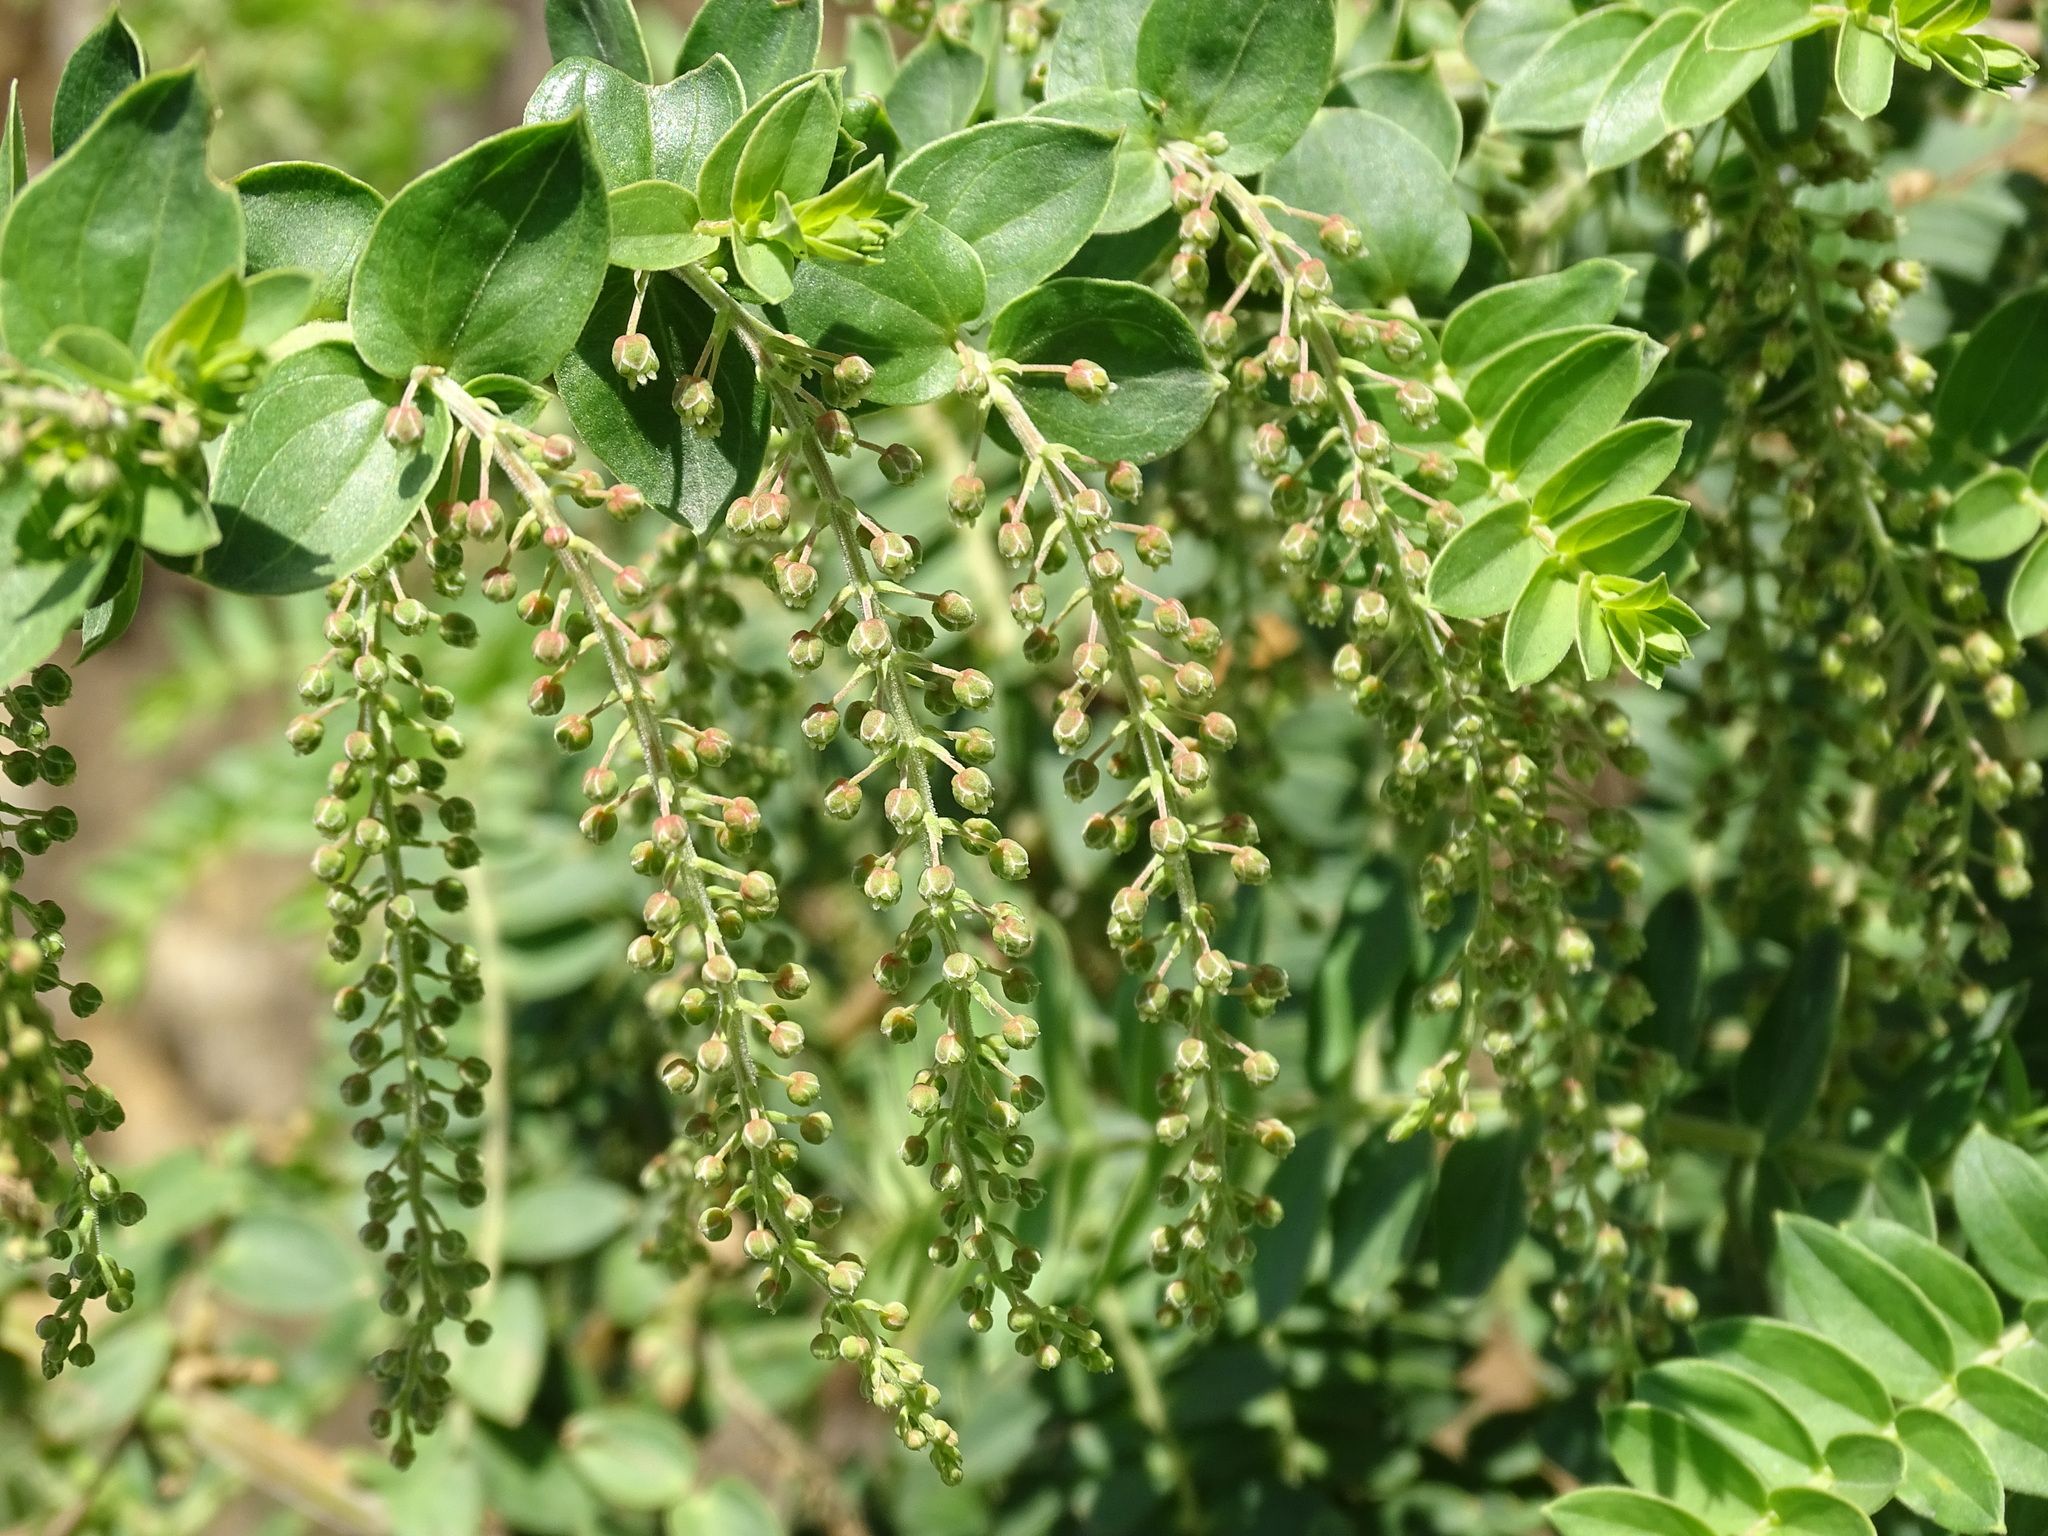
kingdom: Plantae
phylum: Tracheophyta
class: Magnoliopsida
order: Cucurbitales
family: Coriariaceae
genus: Coriaria
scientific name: Coriaria ruscifolia
